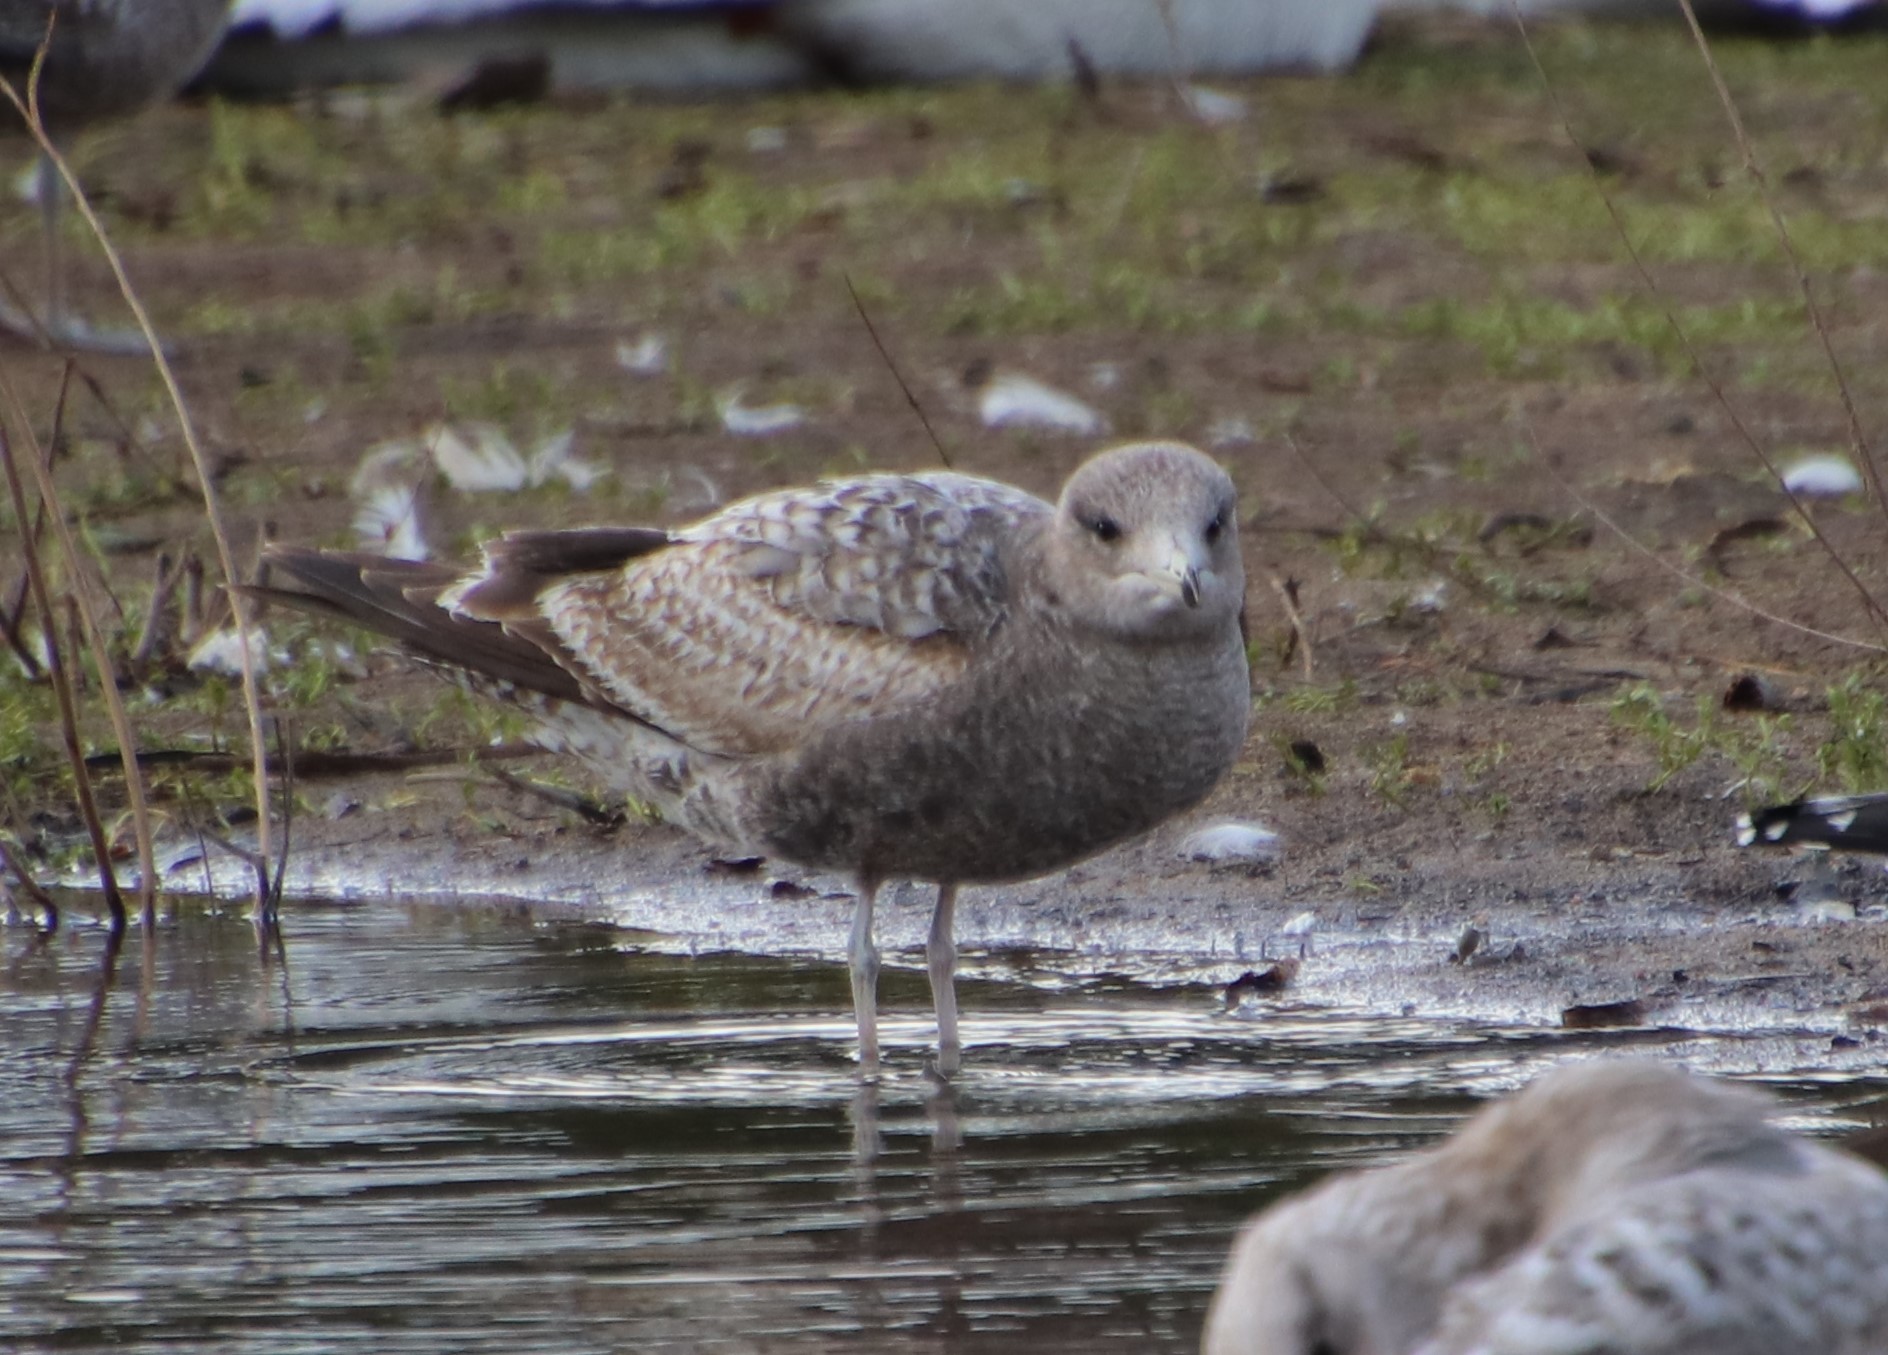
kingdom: Animalia
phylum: Chordata
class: Aves
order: Charadriiformes
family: Laridae
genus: Larus
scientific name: Larus californicus
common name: California gull
